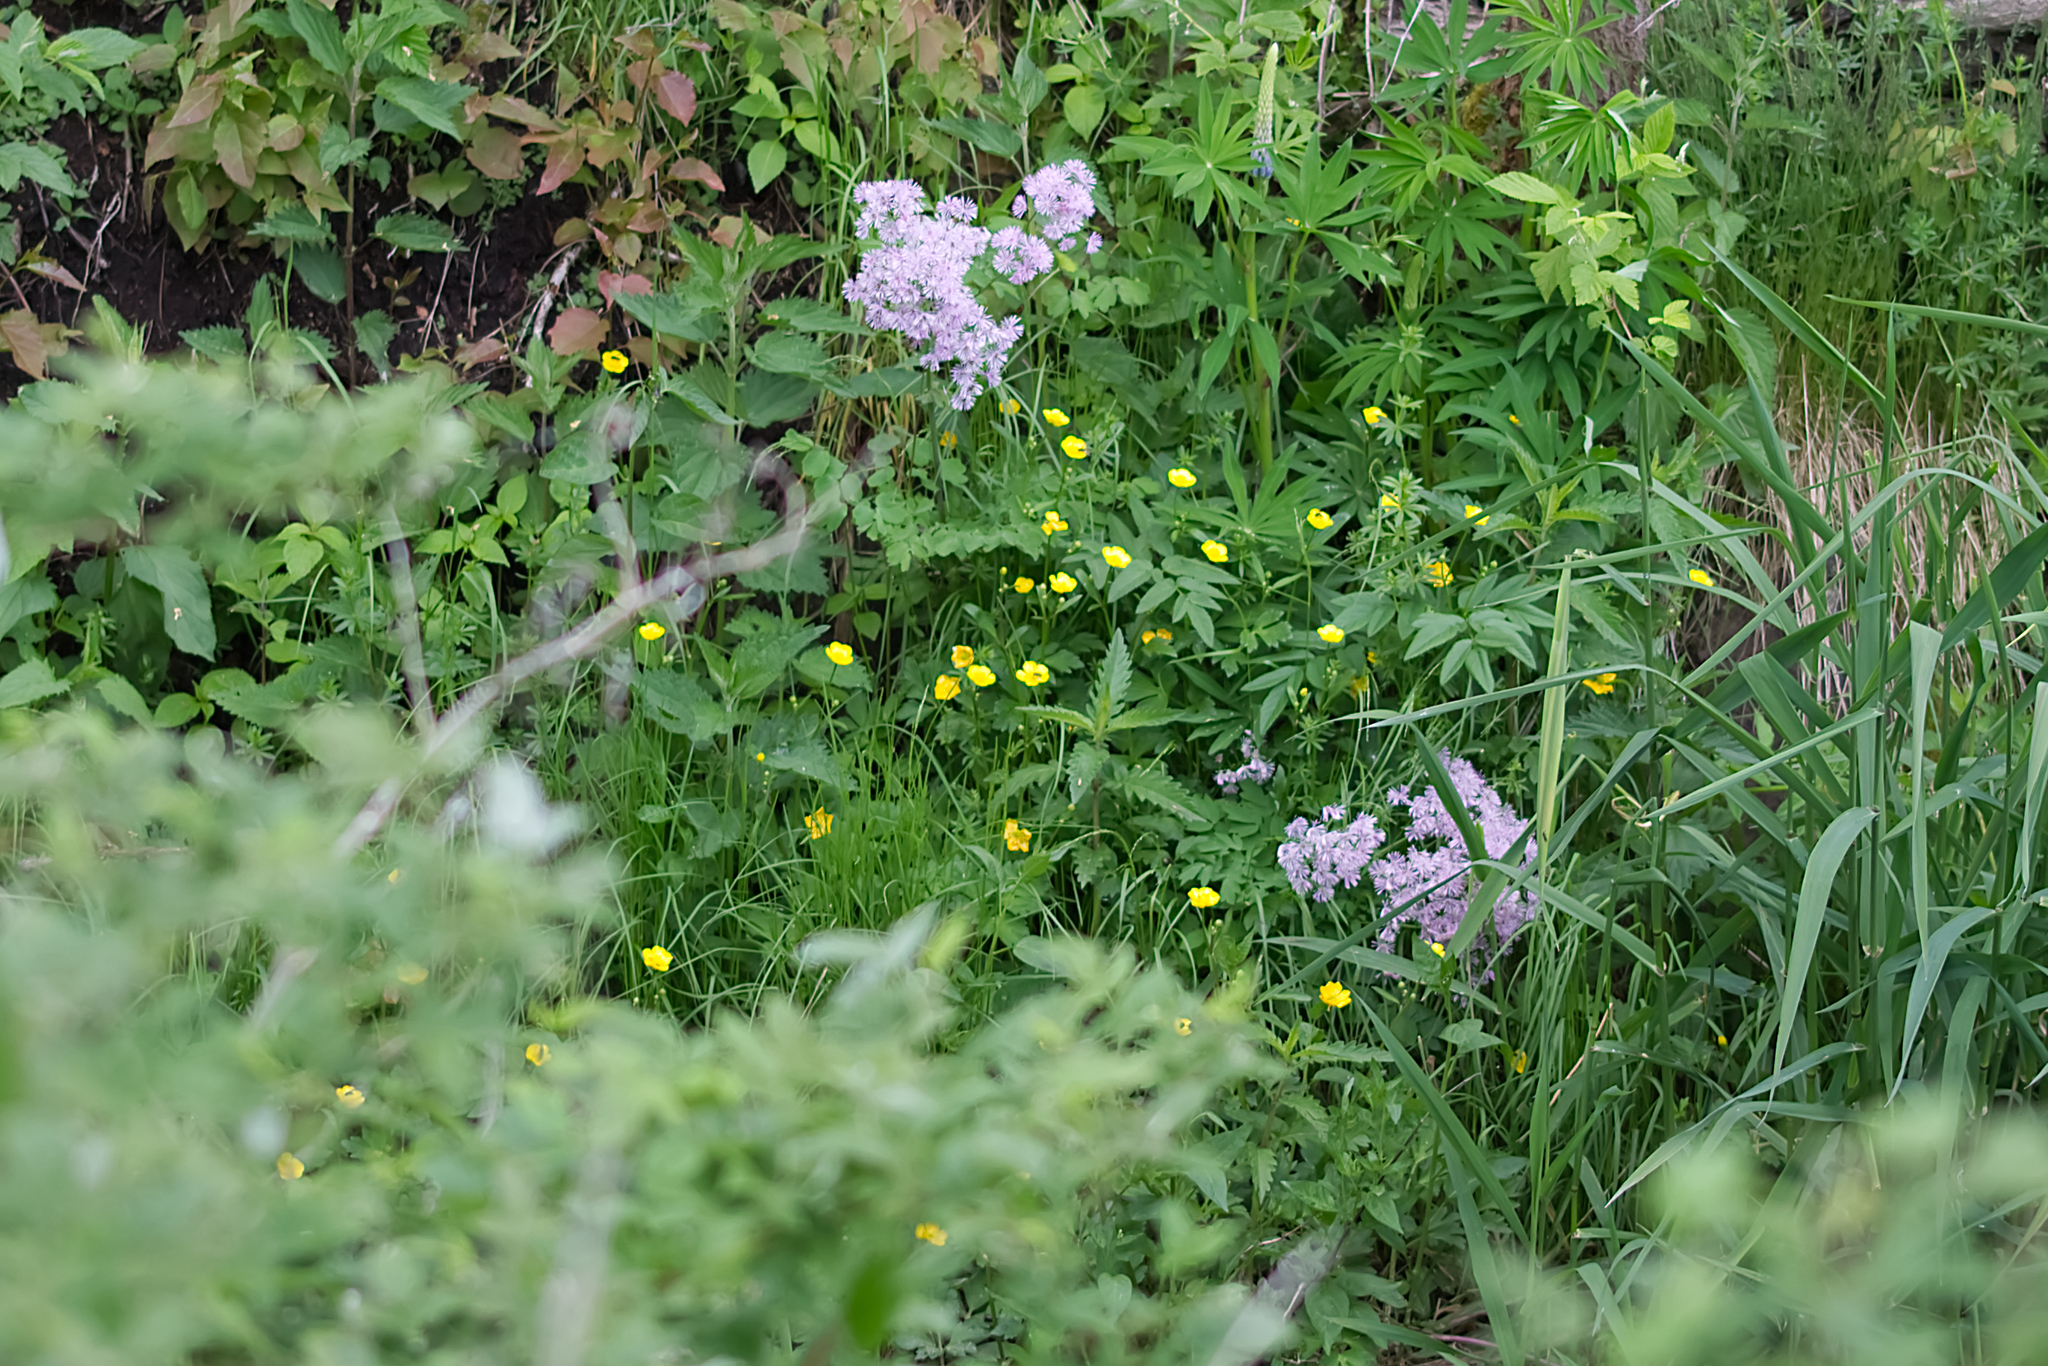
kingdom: Plantae
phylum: Tracheophyta
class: Magnoliopsida
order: Ranunculales
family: Ranunculaceae
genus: Thalictrum
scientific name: Thalictrum aquilegiifolium
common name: French meadow-rue
